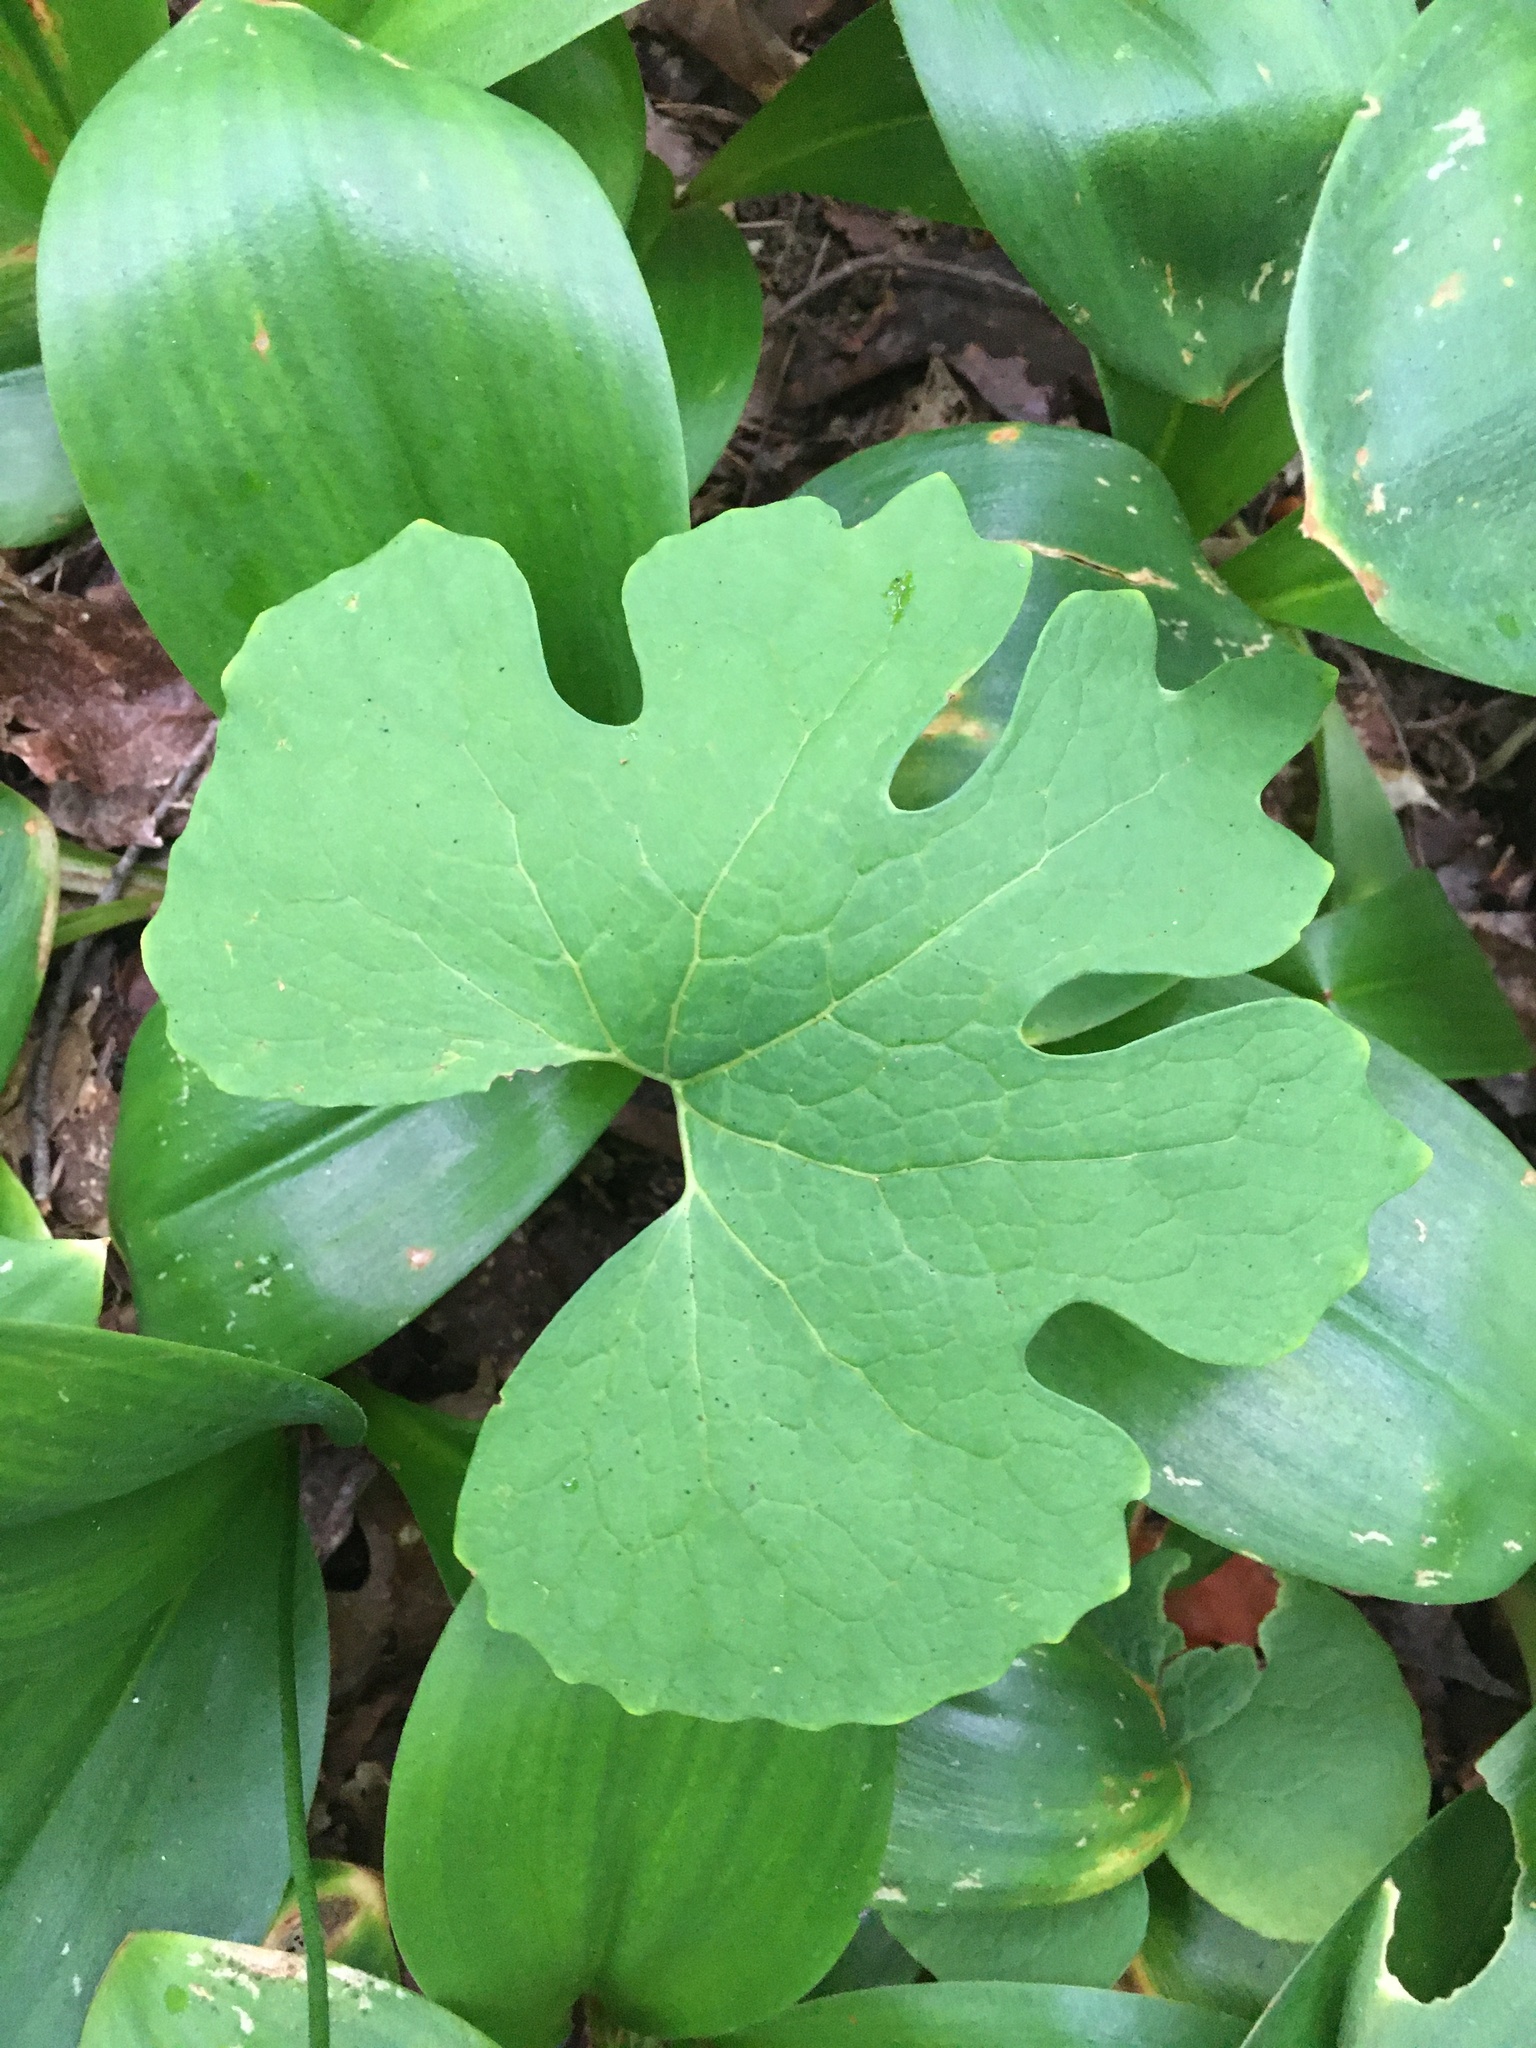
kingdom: Plantae
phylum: Tracheophyta
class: Magnoliopsida
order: Ranunculales
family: Papaveraceae
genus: Sanguinaria
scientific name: Sanguinaria canadensis
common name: Bloodroot
